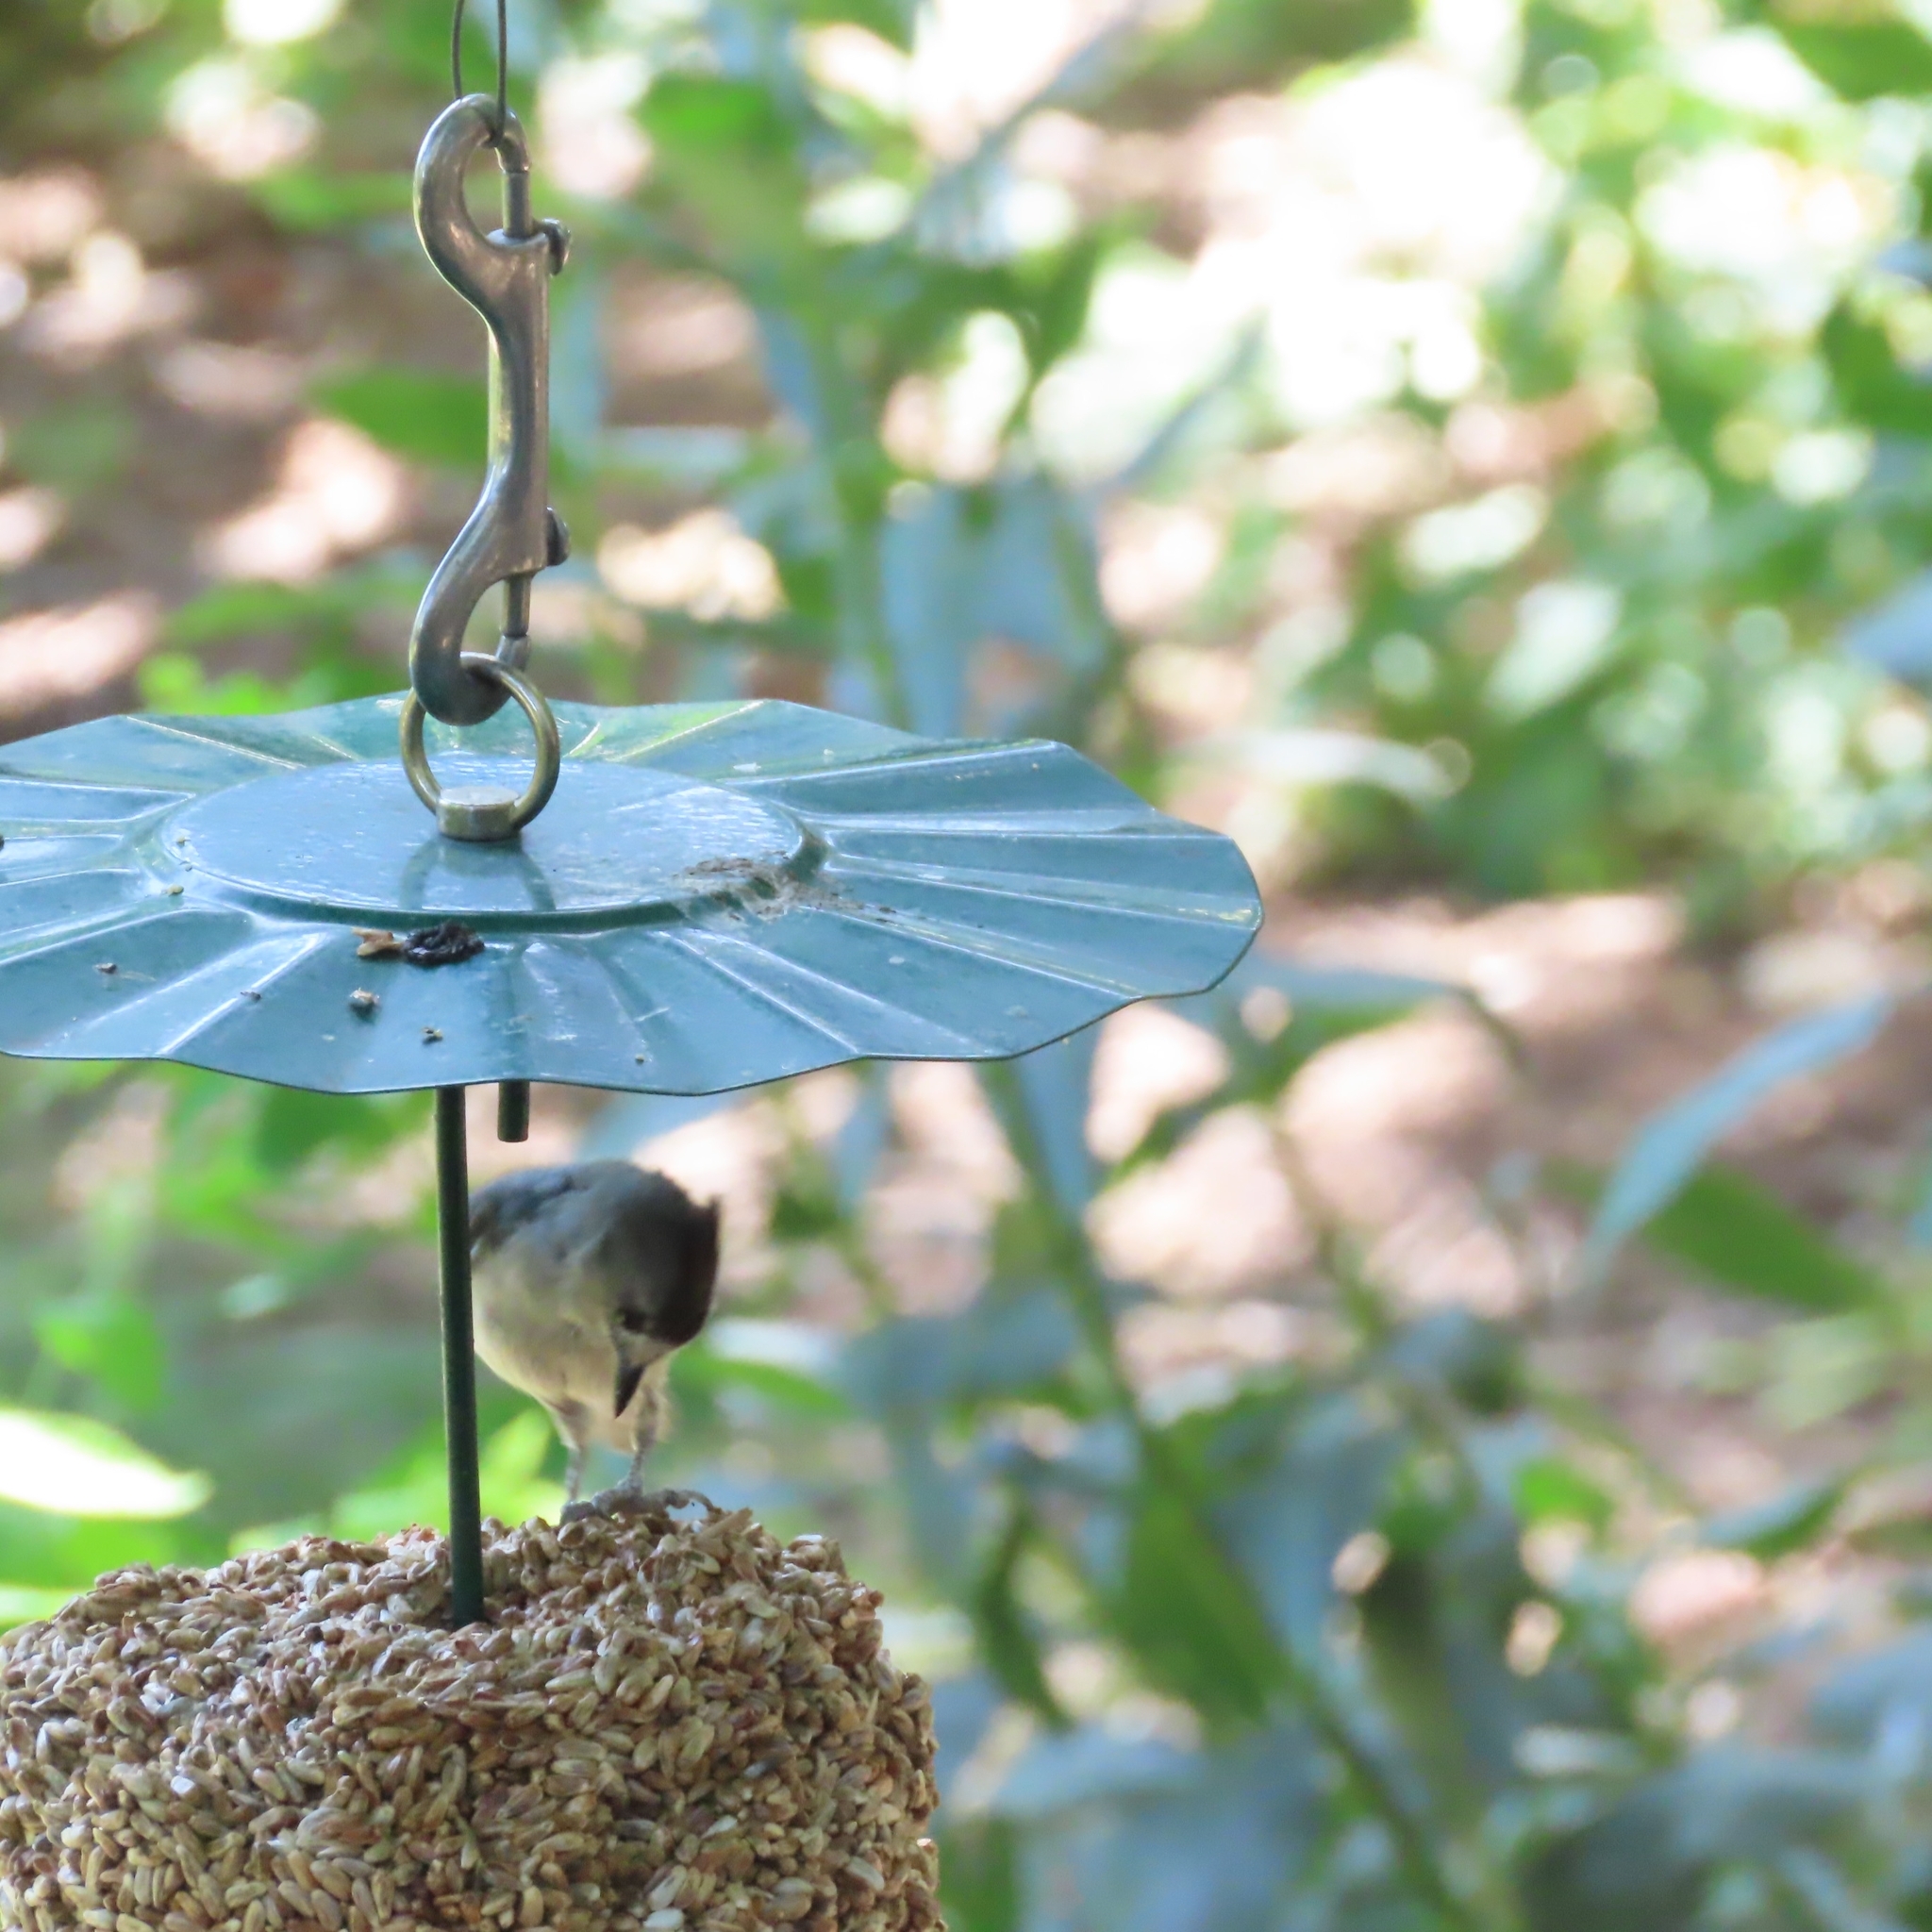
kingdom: Animalia
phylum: Chordata
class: Aves
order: Passeriformes
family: Paridae
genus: Baeolophus
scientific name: Baeolophus atricristatus
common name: Black-crested titmouse
